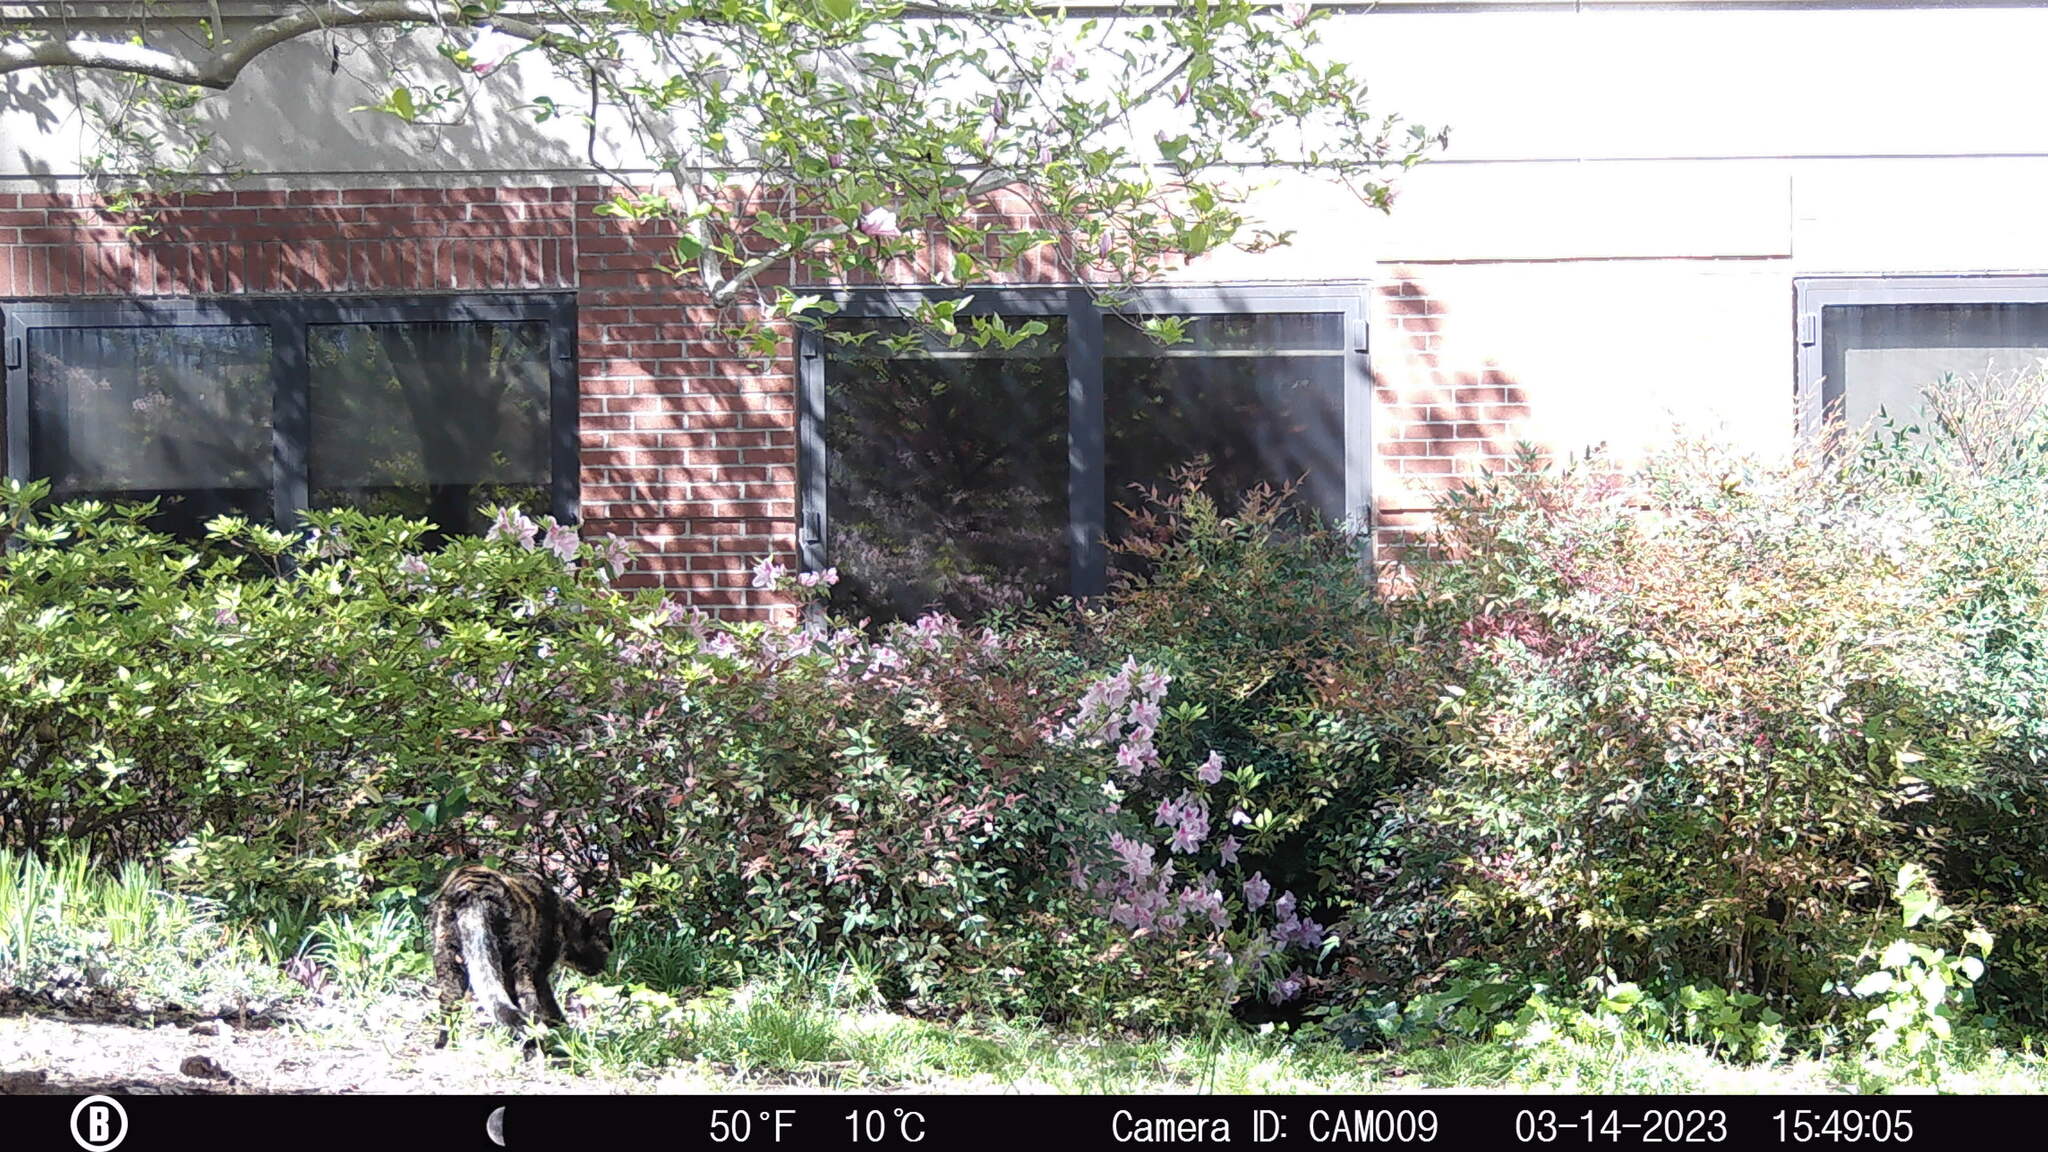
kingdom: Animalia
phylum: Chordata
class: Mammalia
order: Carnivora
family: Felidae
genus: Felis
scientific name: Felis catus
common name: Domestic cat
